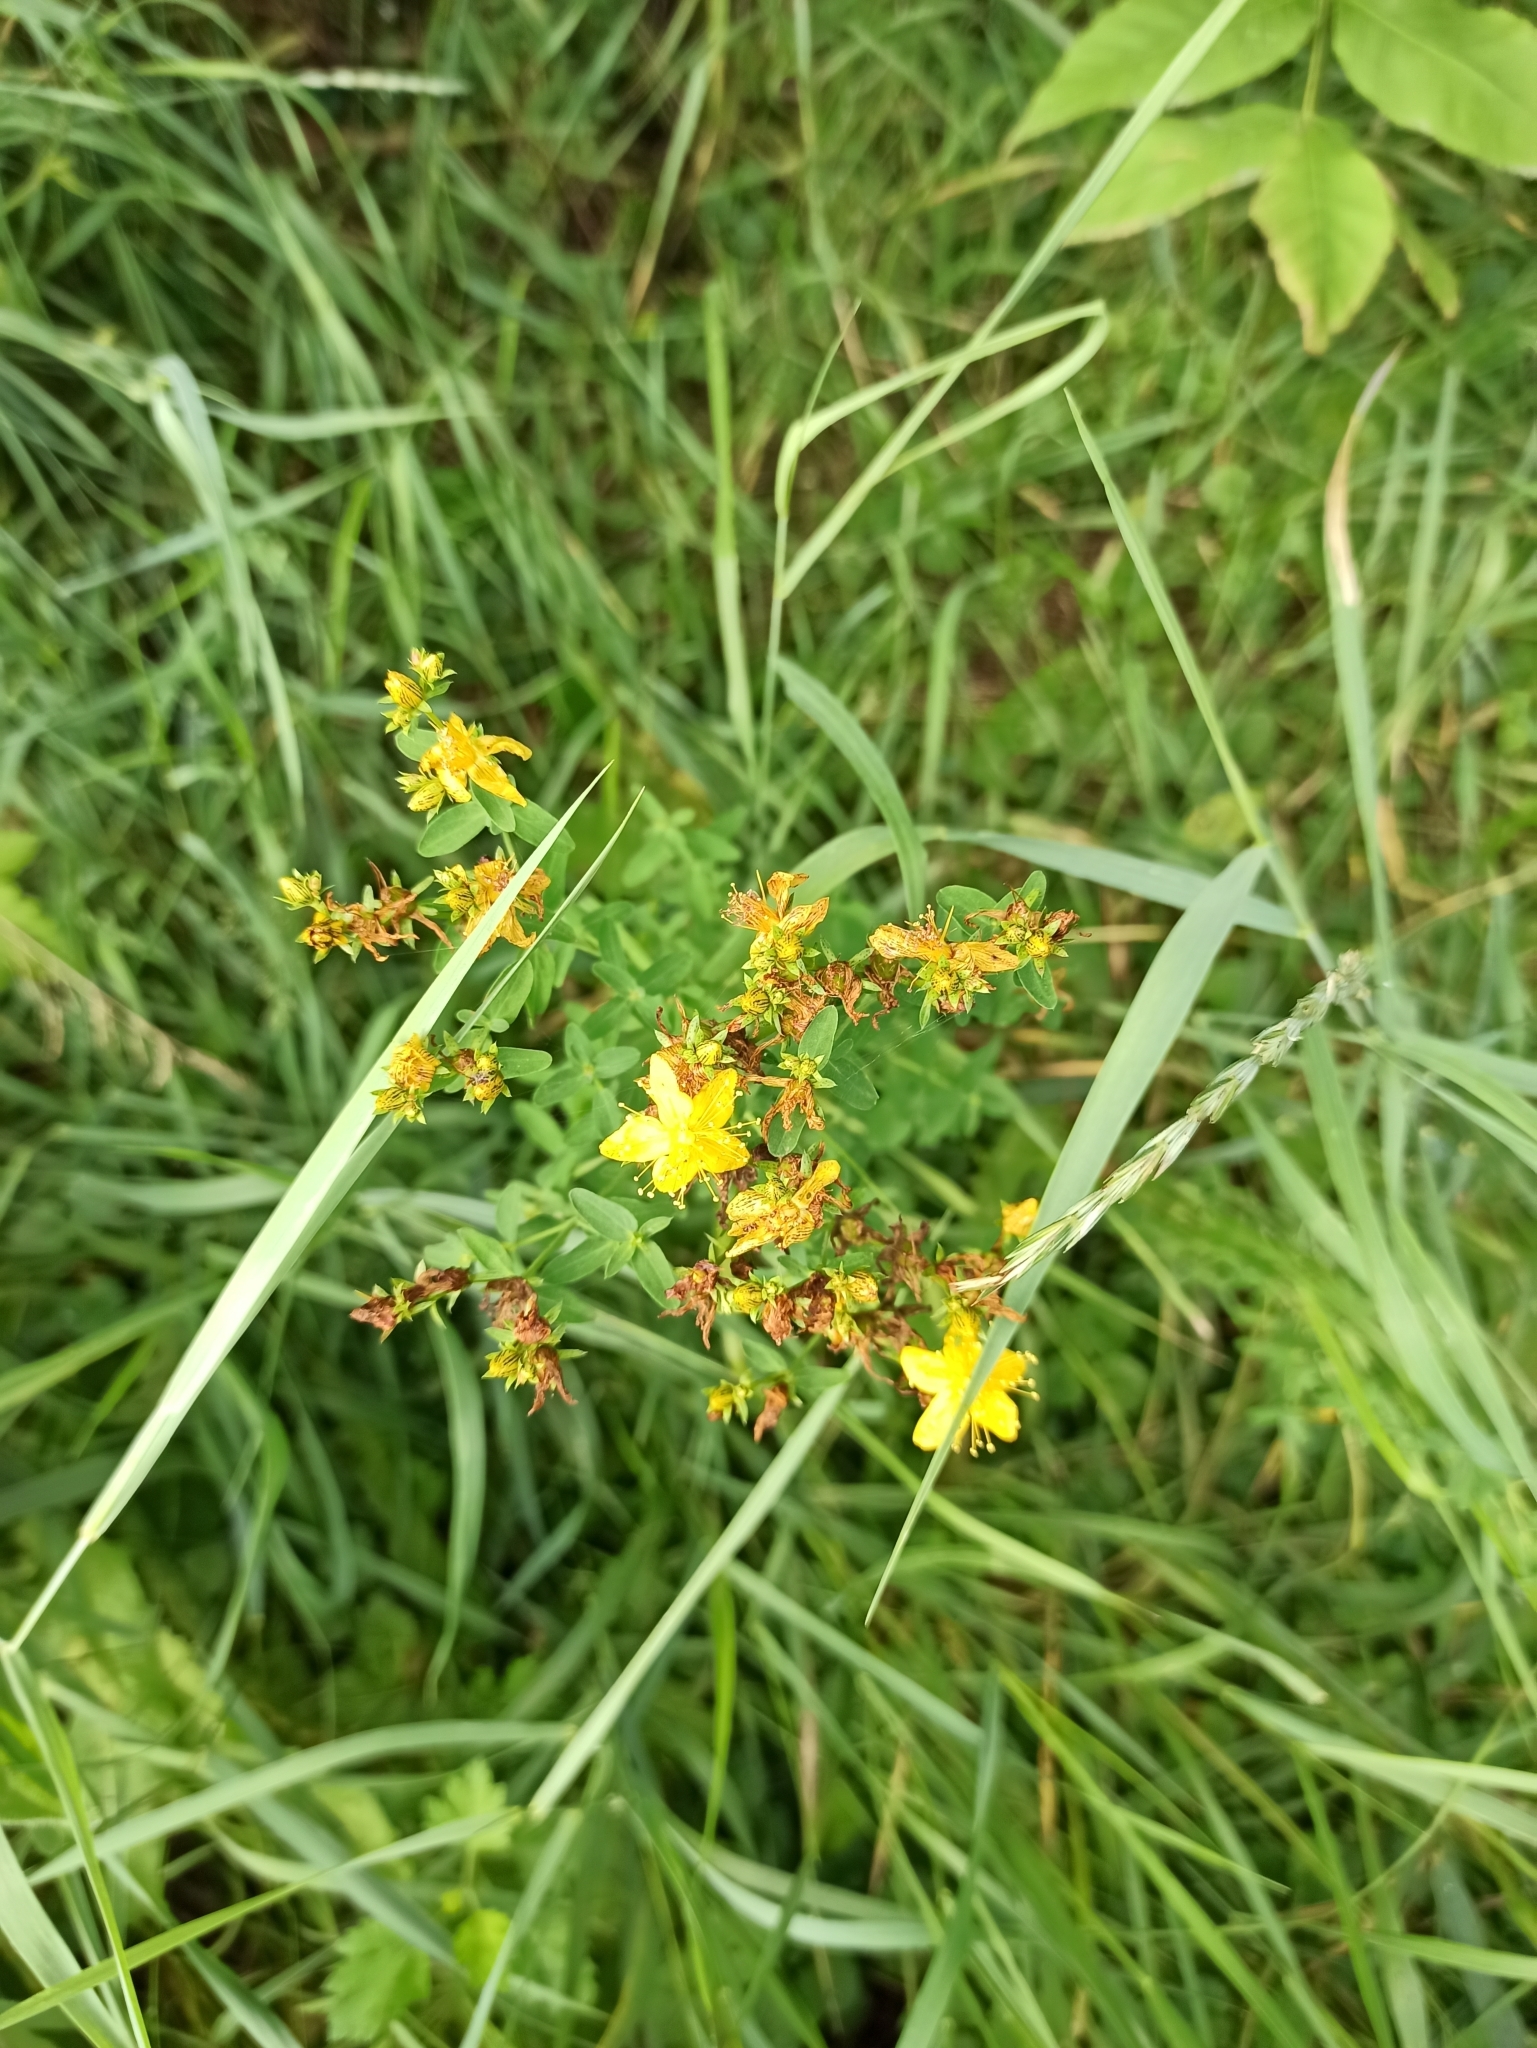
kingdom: Plantae
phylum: Tracheophyta
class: Magnoliopsida
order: Malpighiales
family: Hypericaceae
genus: Hypericum
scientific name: Hypericum perforatum
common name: Common st. johnswort
